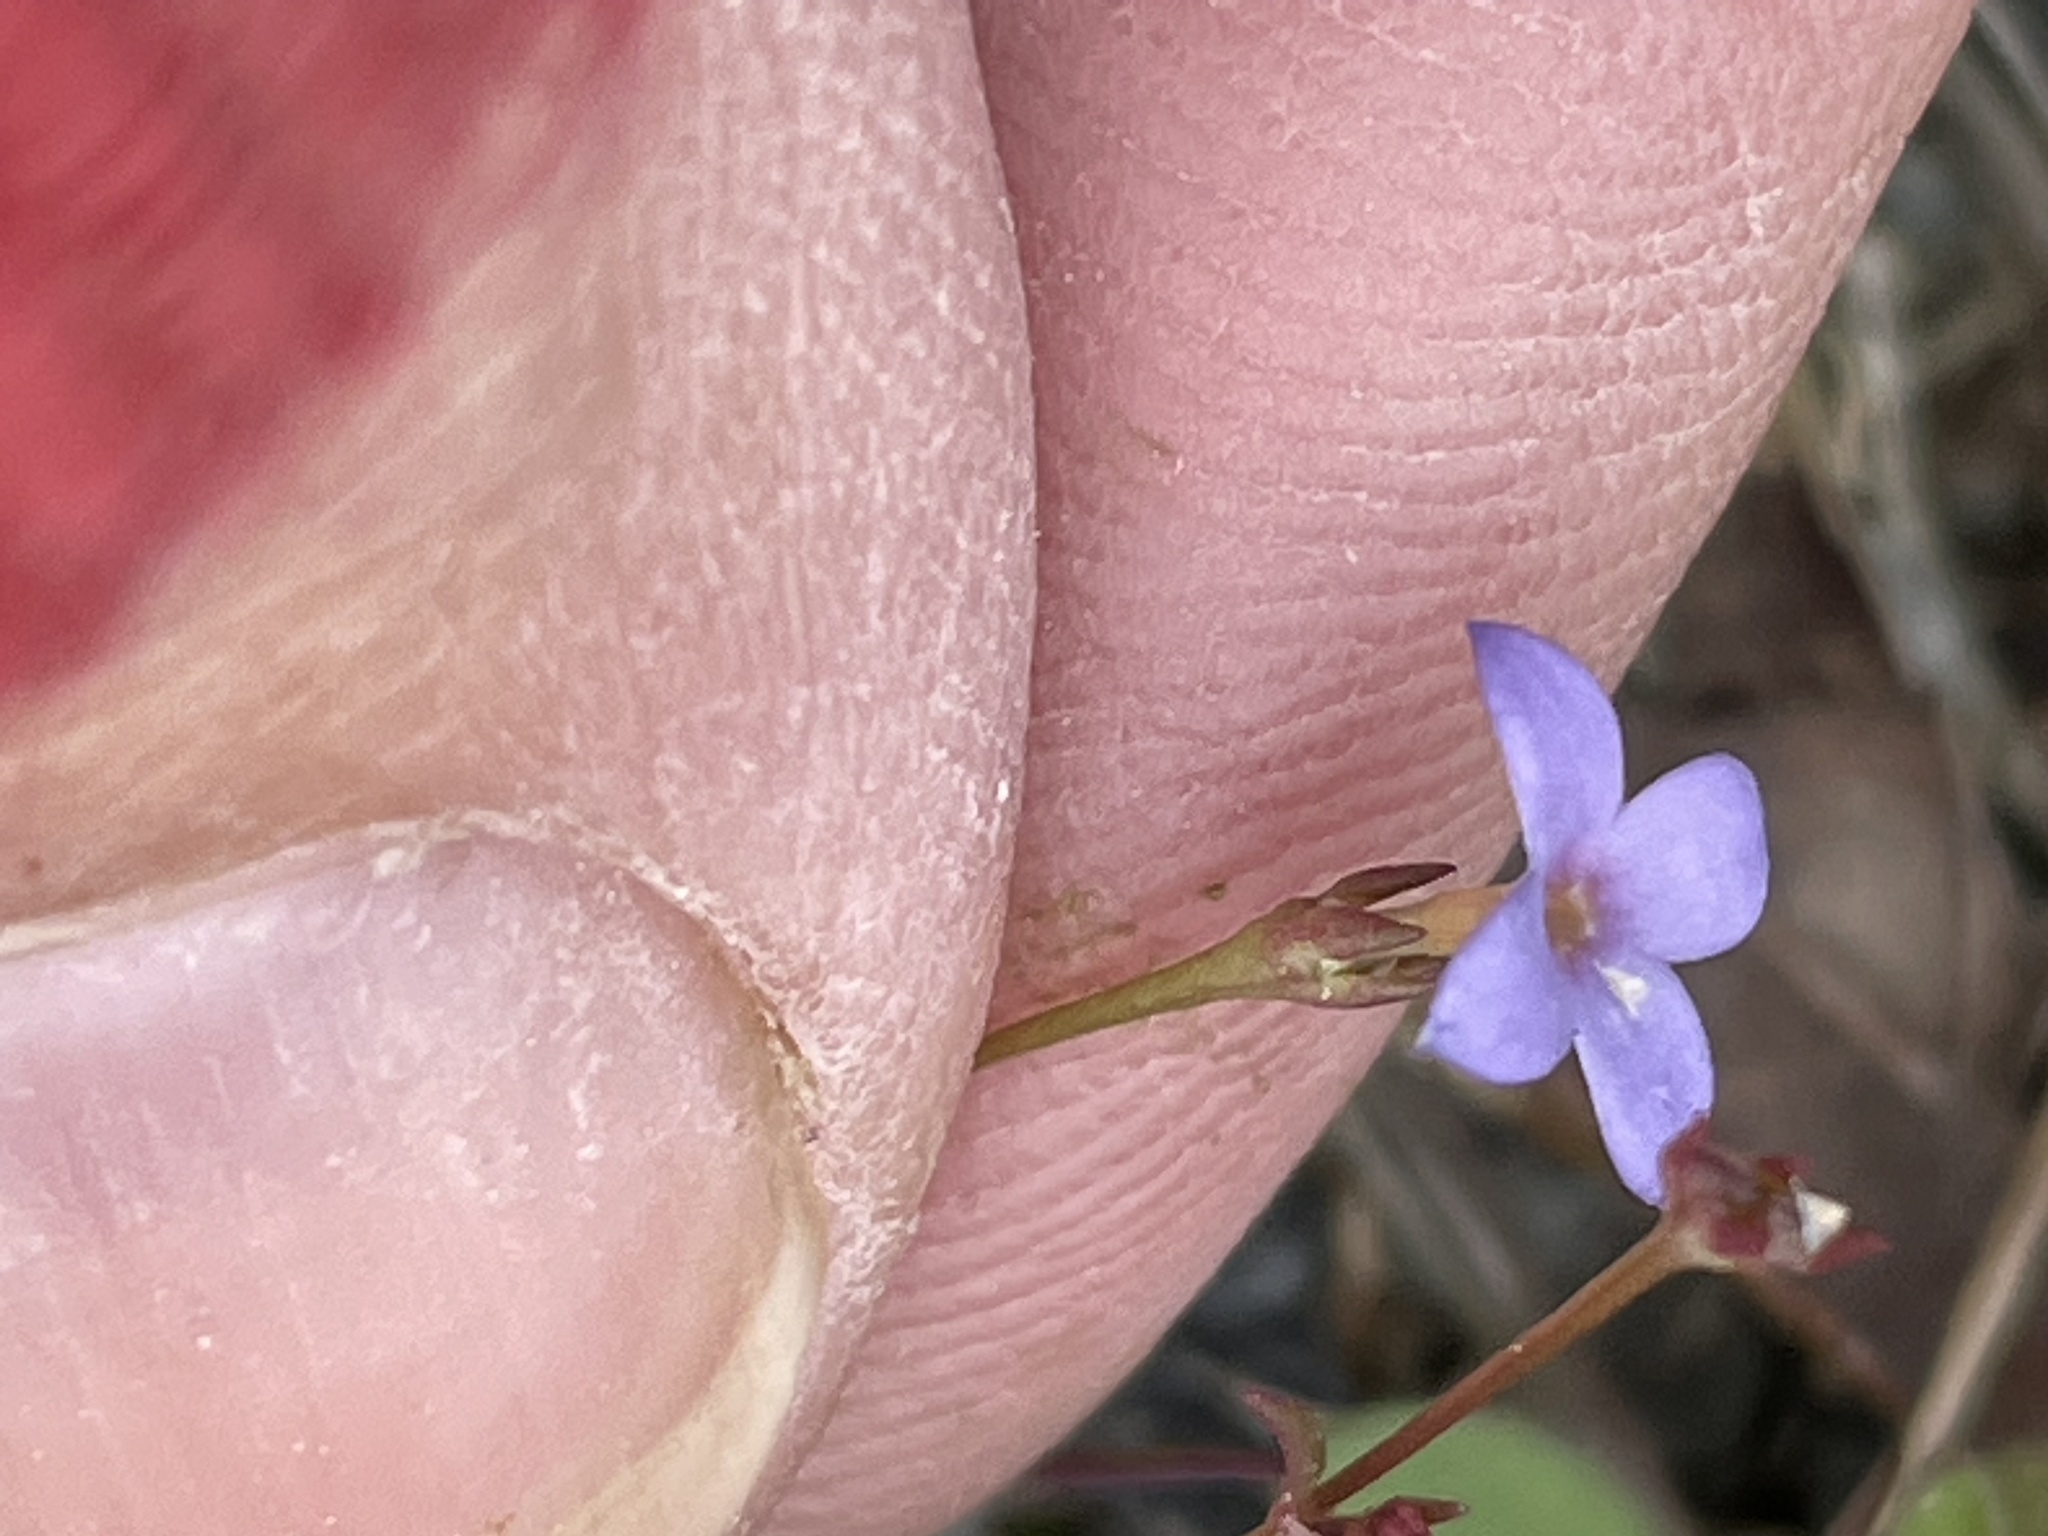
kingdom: Plantae
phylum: Tracheophyta
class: Magnoliopsida
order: Gentianales
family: Rubiaceae
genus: Houstonia
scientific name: Houstonia pusilla
